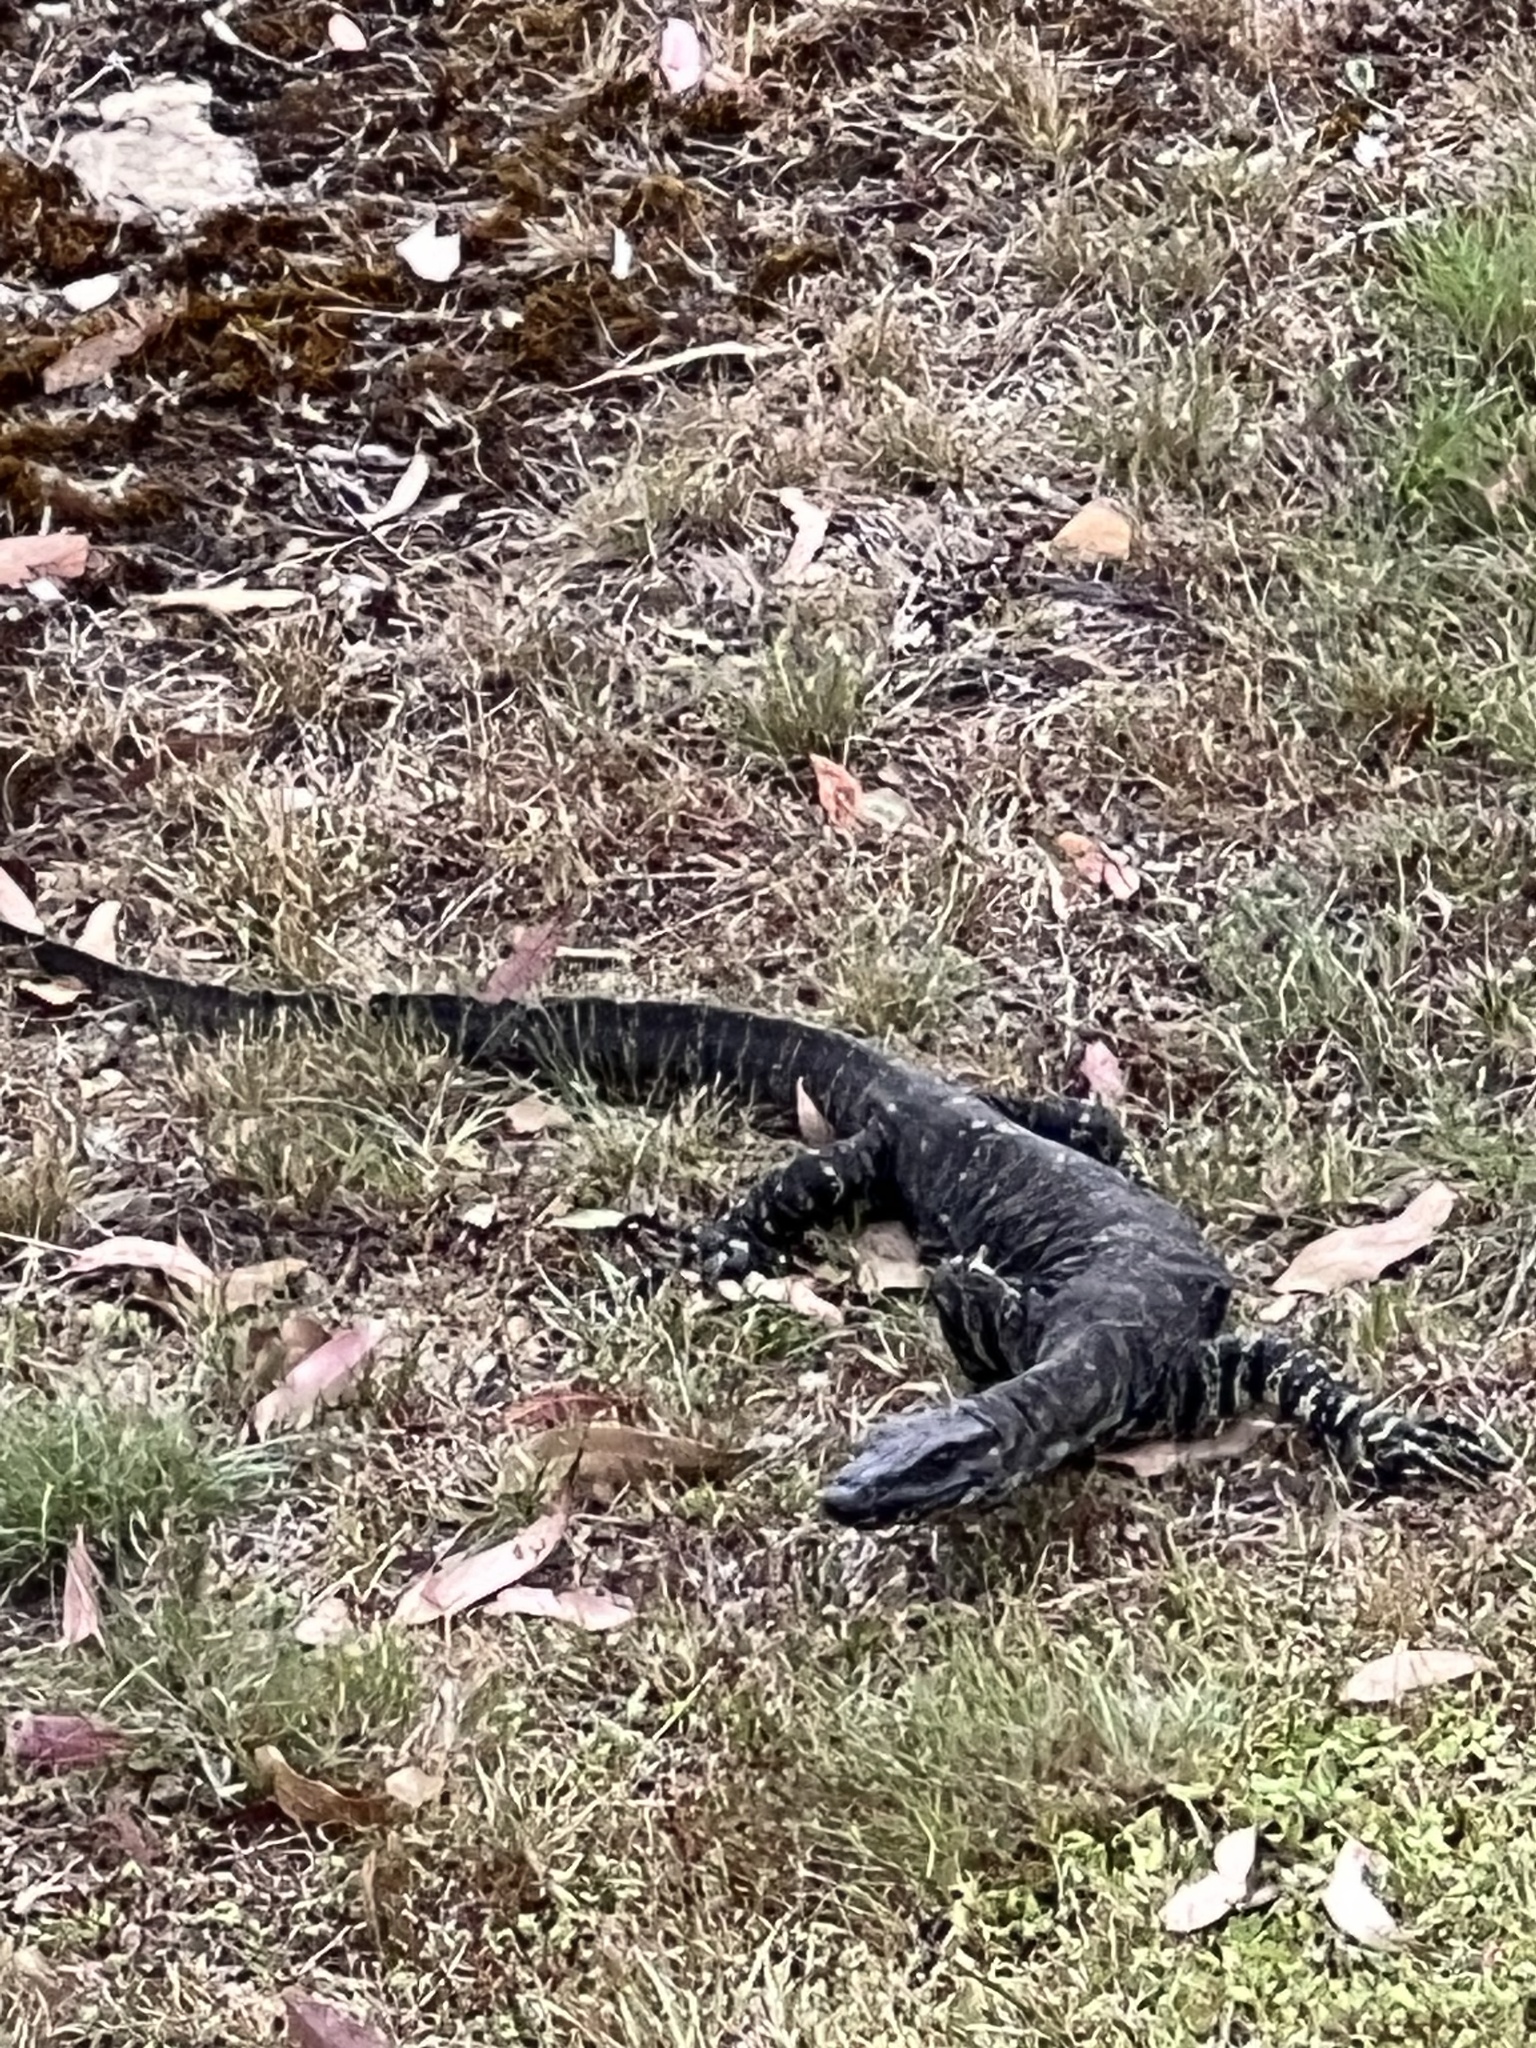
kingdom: Animalia
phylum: Chordata
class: Squamata
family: Varanidae
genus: Varanus
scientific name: Varanus varius
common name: Lace monitor
